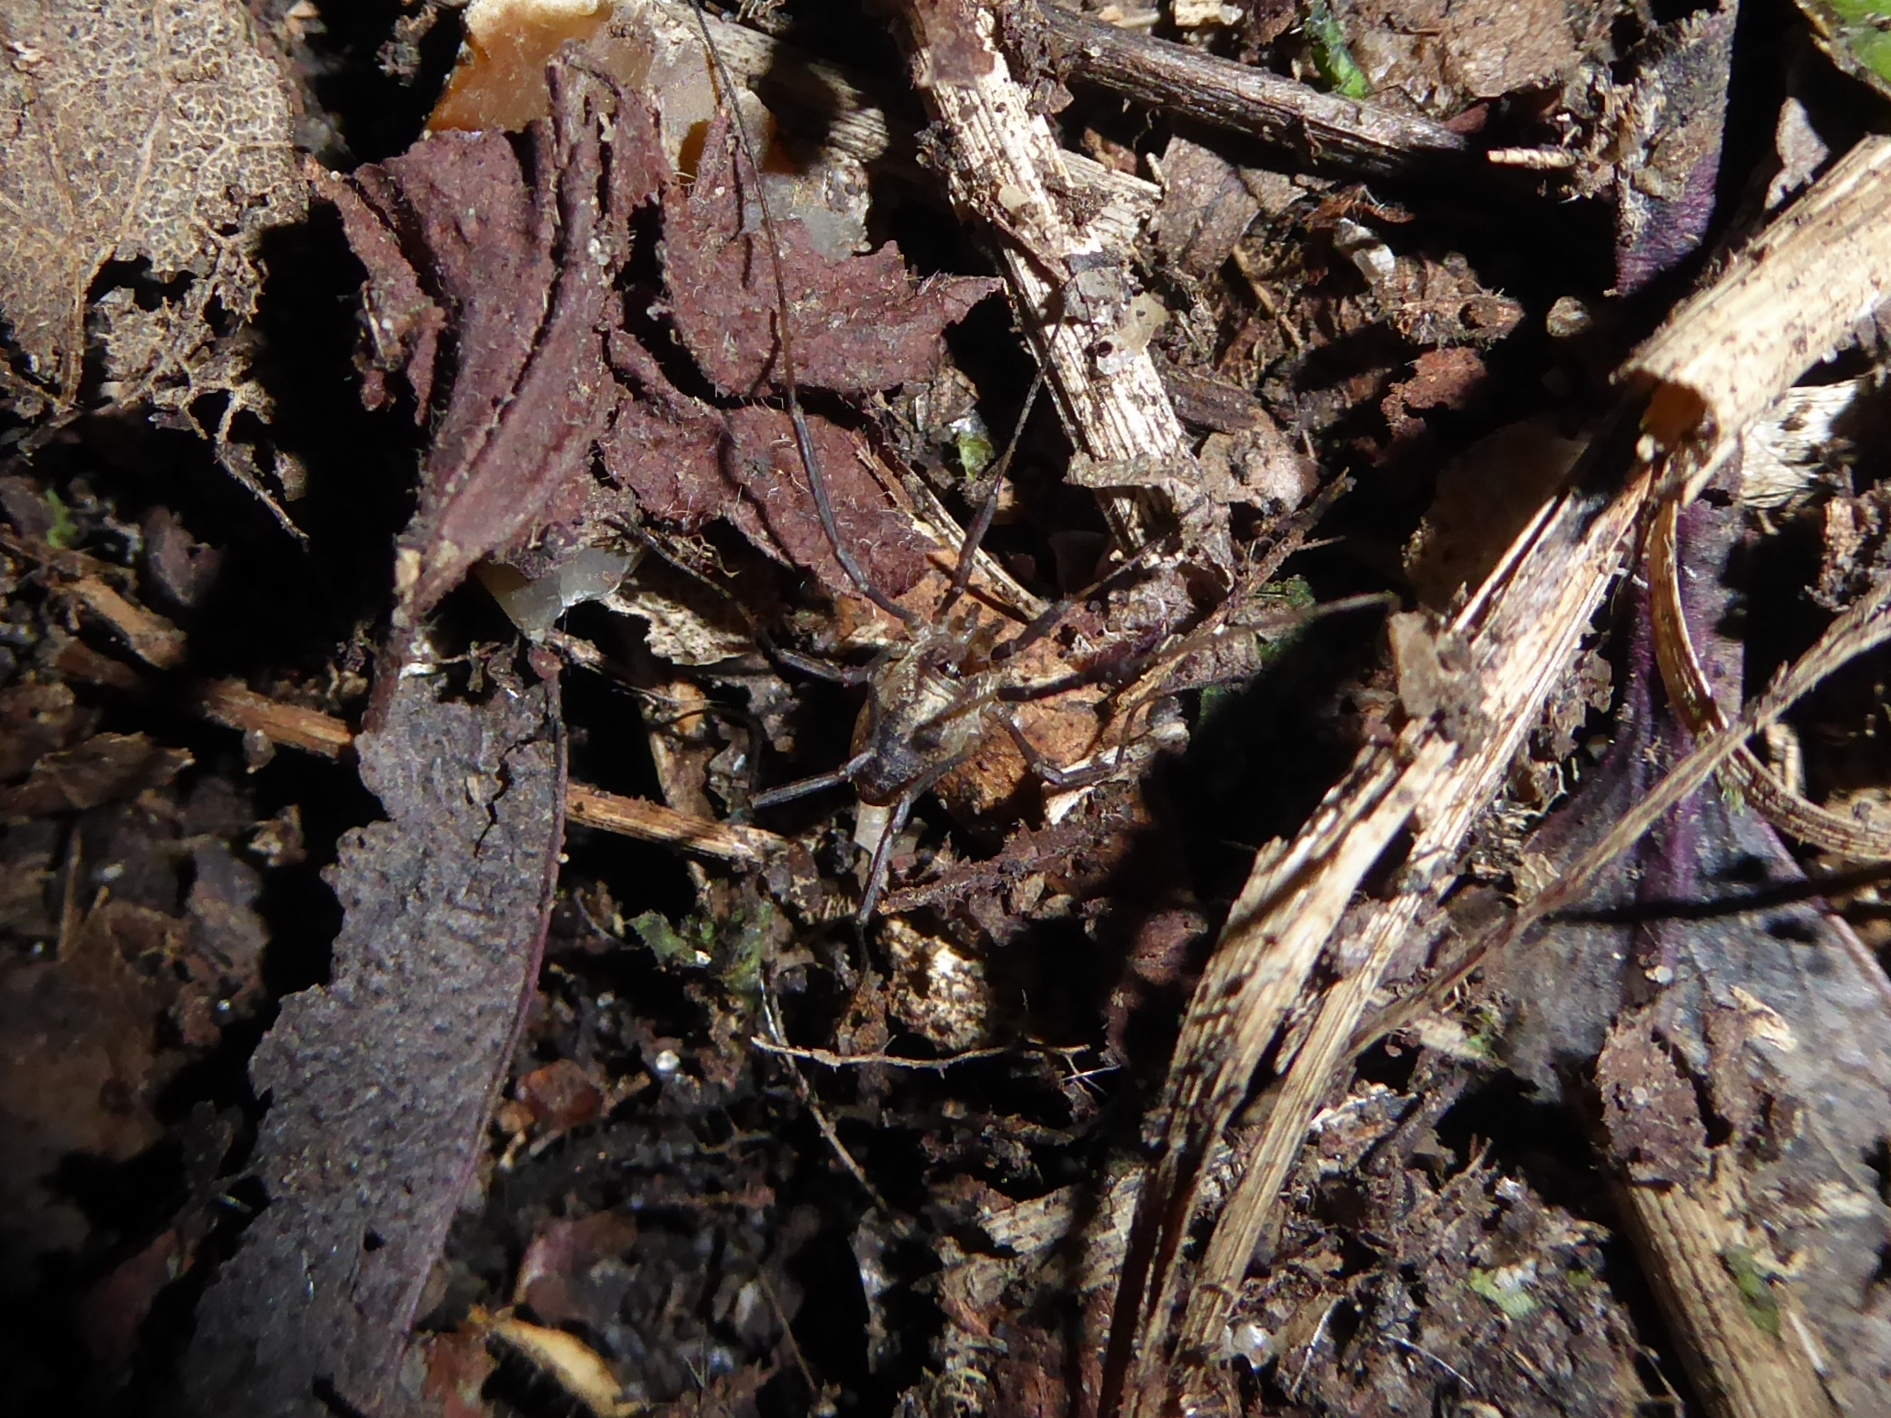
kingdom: Animalia
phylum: Arthropoda
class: Arachnida
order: Opiliones
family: Phalangiidae
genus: Paroligolophus
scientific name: Paroligolophus agrestis
